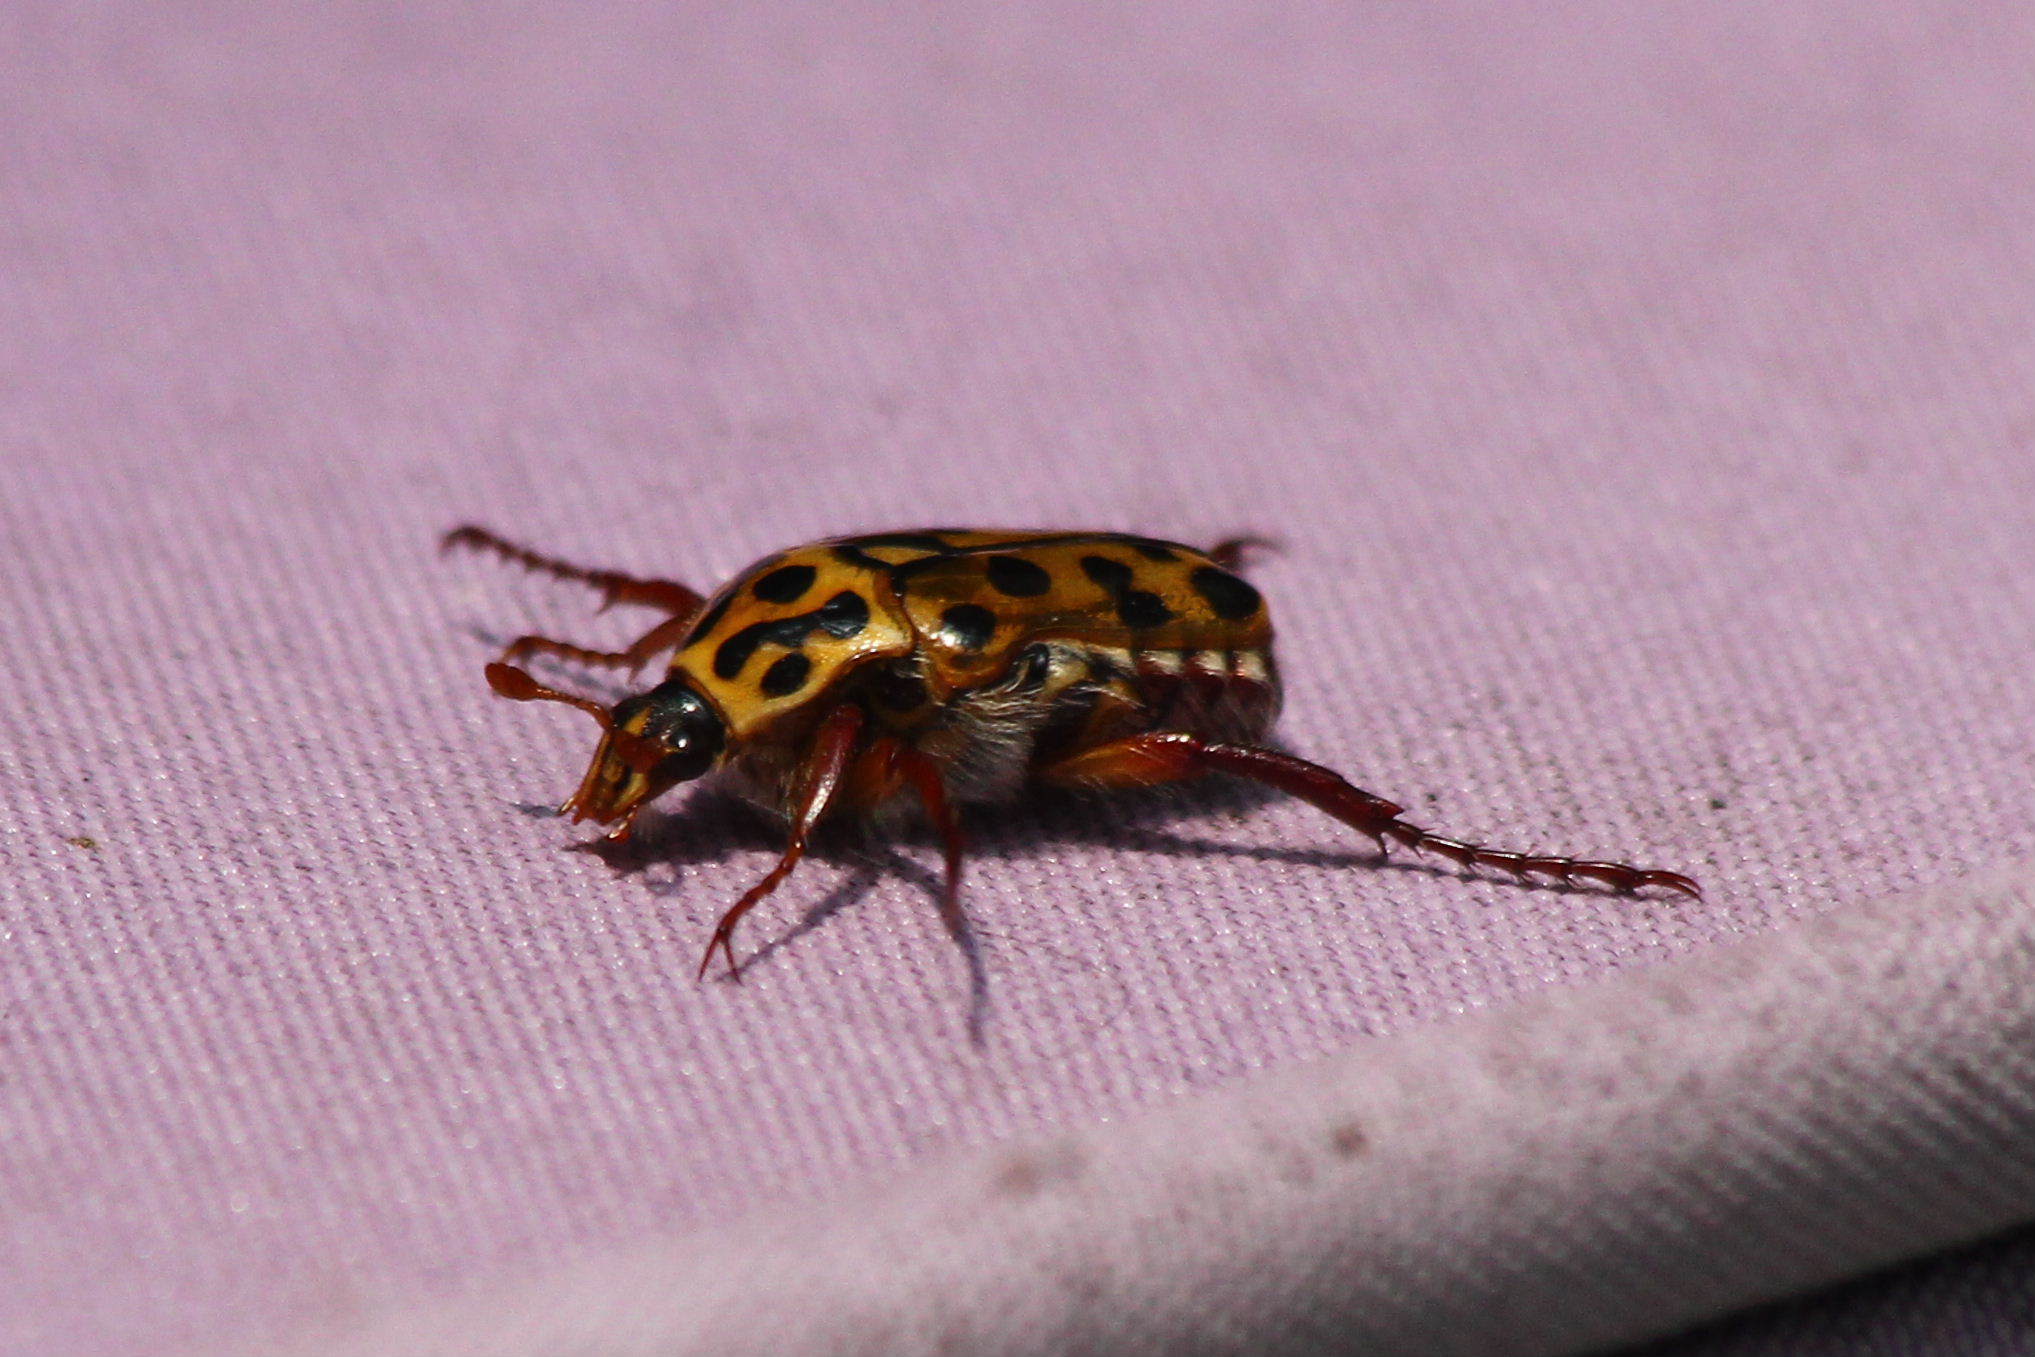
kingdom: Animalia
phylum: Arthropoda
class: Insecta
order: Coleoptera
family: Scarabaeidae
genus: Neorrhina
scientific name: Neorrhina punctatum
